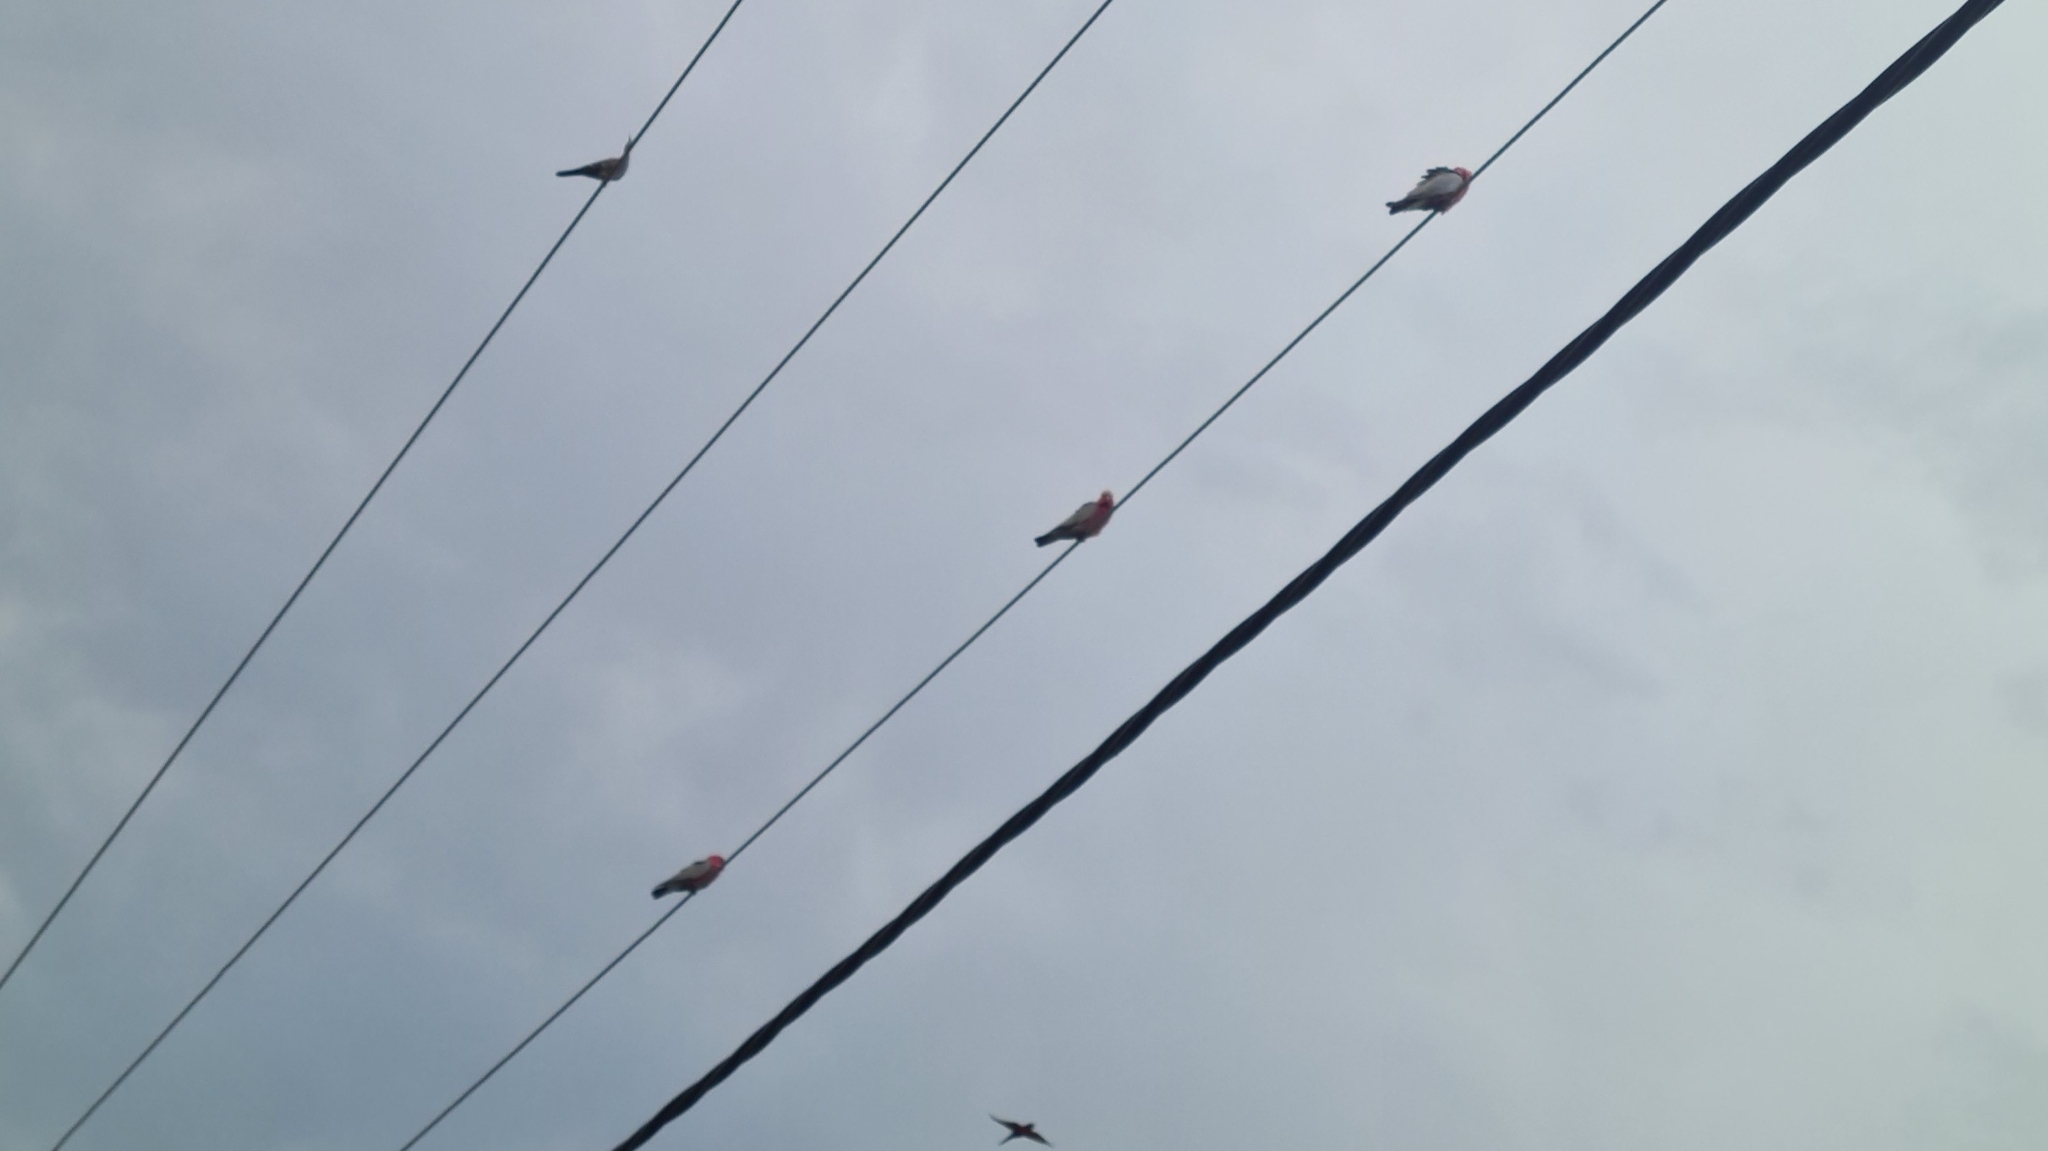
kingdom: Animalia
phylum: Chordata
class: Aves
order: Psittaciformes
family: Psittacidae
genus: Eolophus
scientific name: Eolophus roseicapilla
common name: Galah
